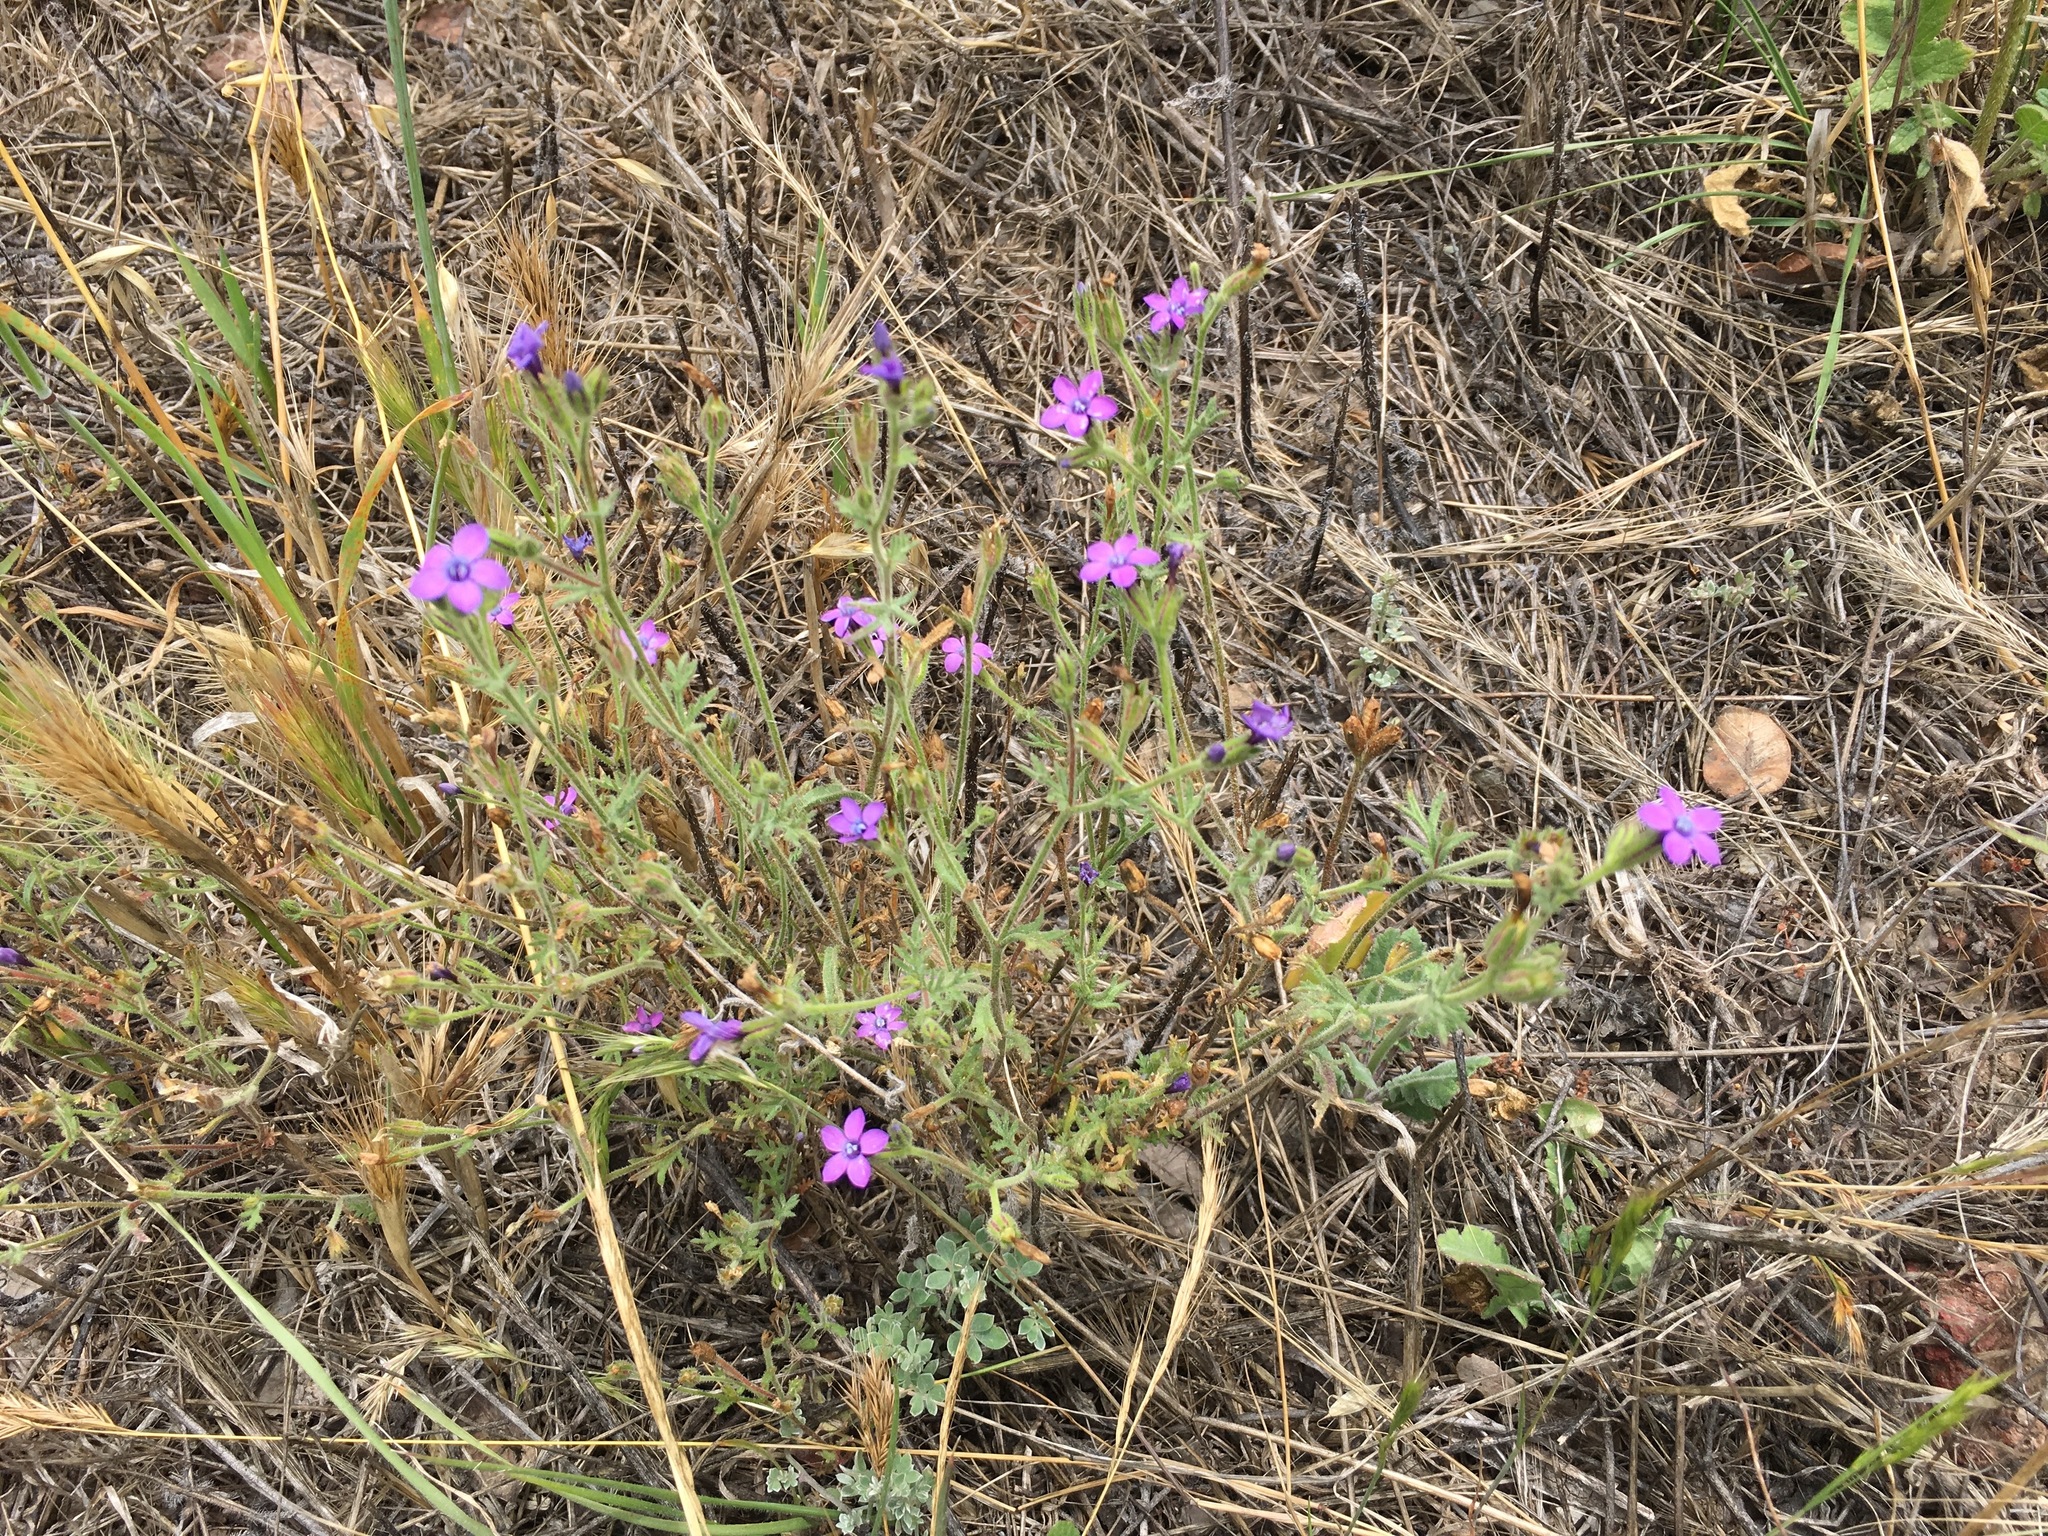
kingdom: Plantae
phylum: Tracheophyta
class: Magnoliopsida
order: Ericales
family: Polemoniaceae
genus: Gilia
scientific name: Gilia nevinii
